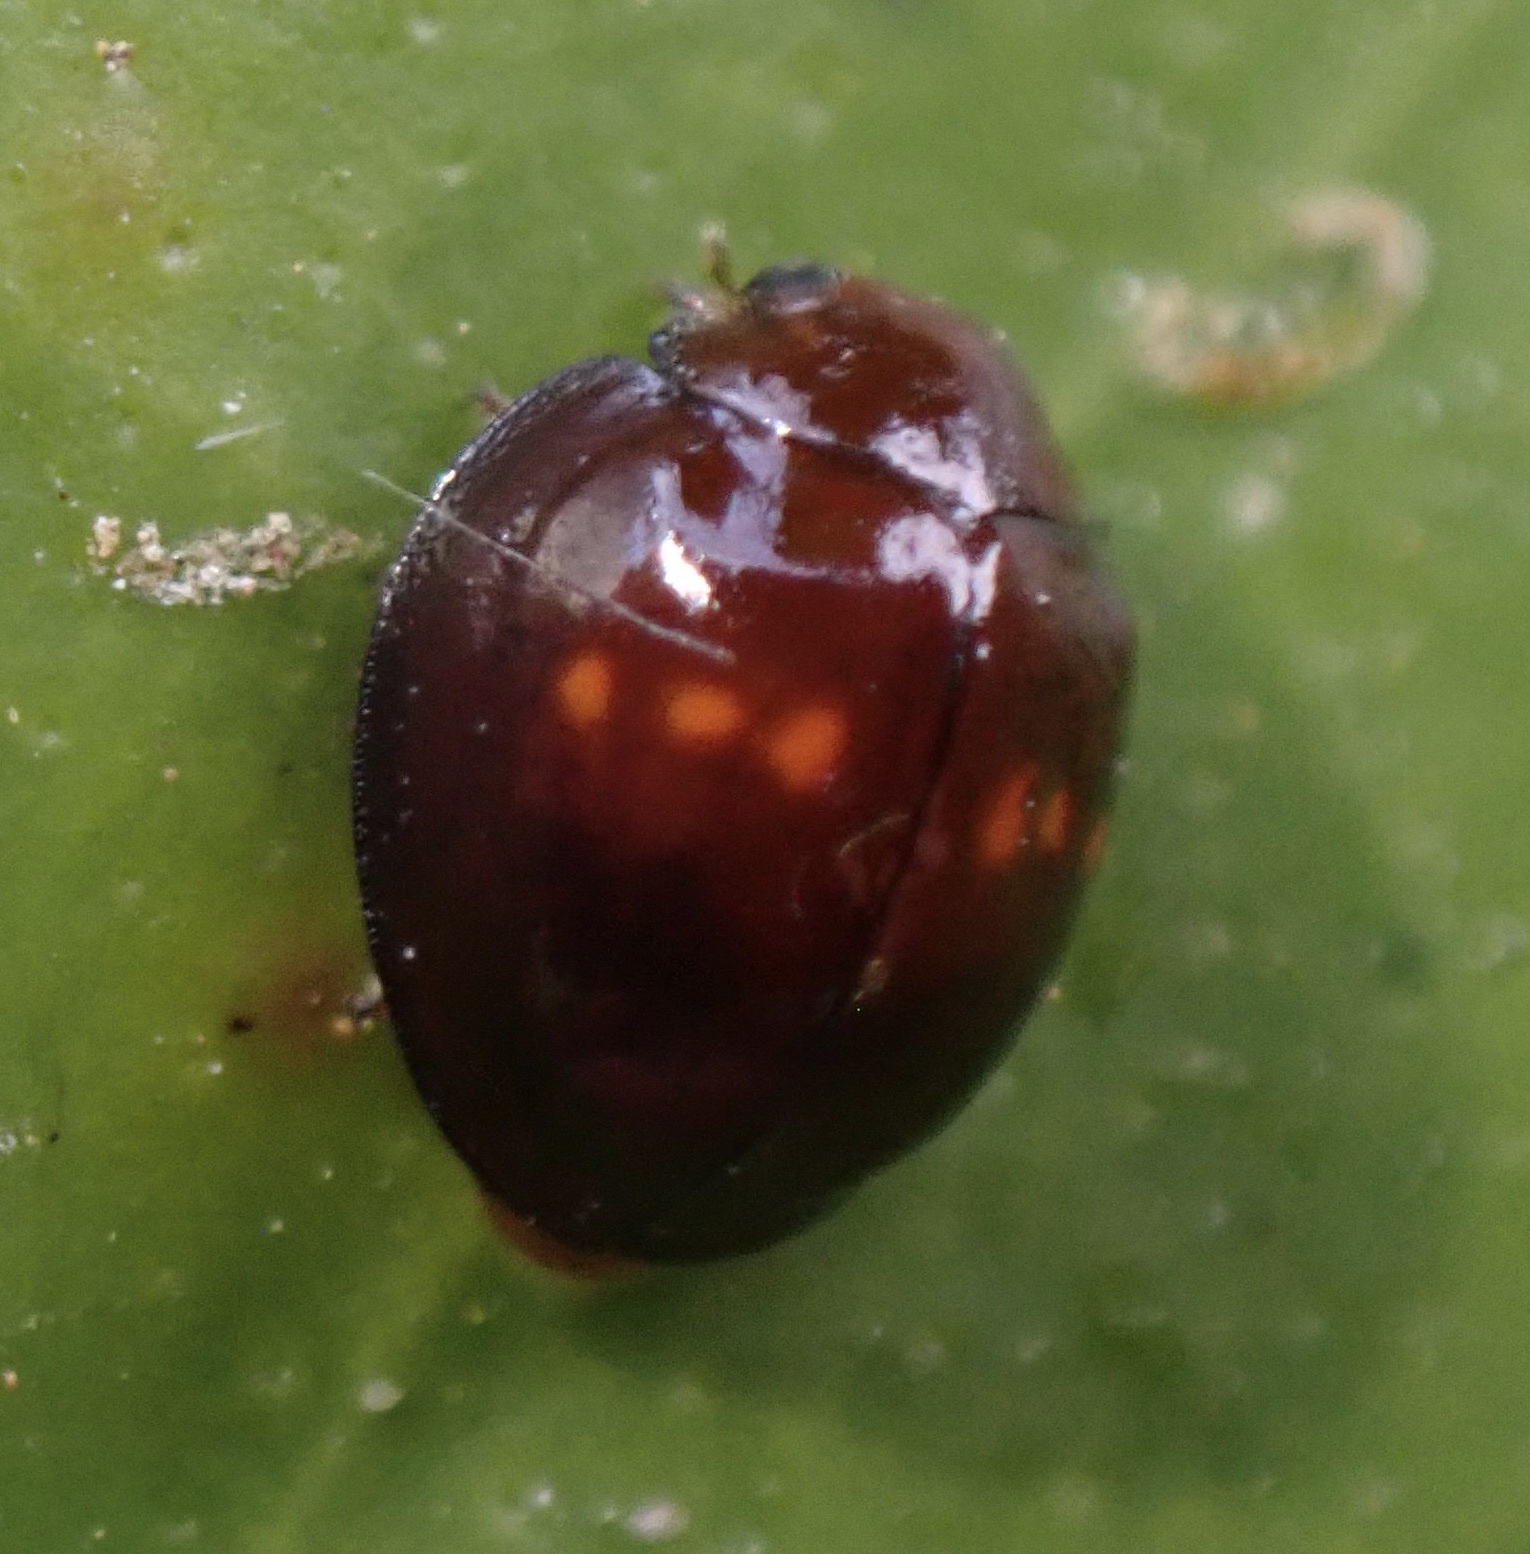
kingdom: Animalia
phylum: Arthropoda
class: Insecta
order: Coleoptera
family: Coccinellidae
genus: Chilocorus
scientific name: Chilocorus bipustulatus
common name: Heather ladybird
